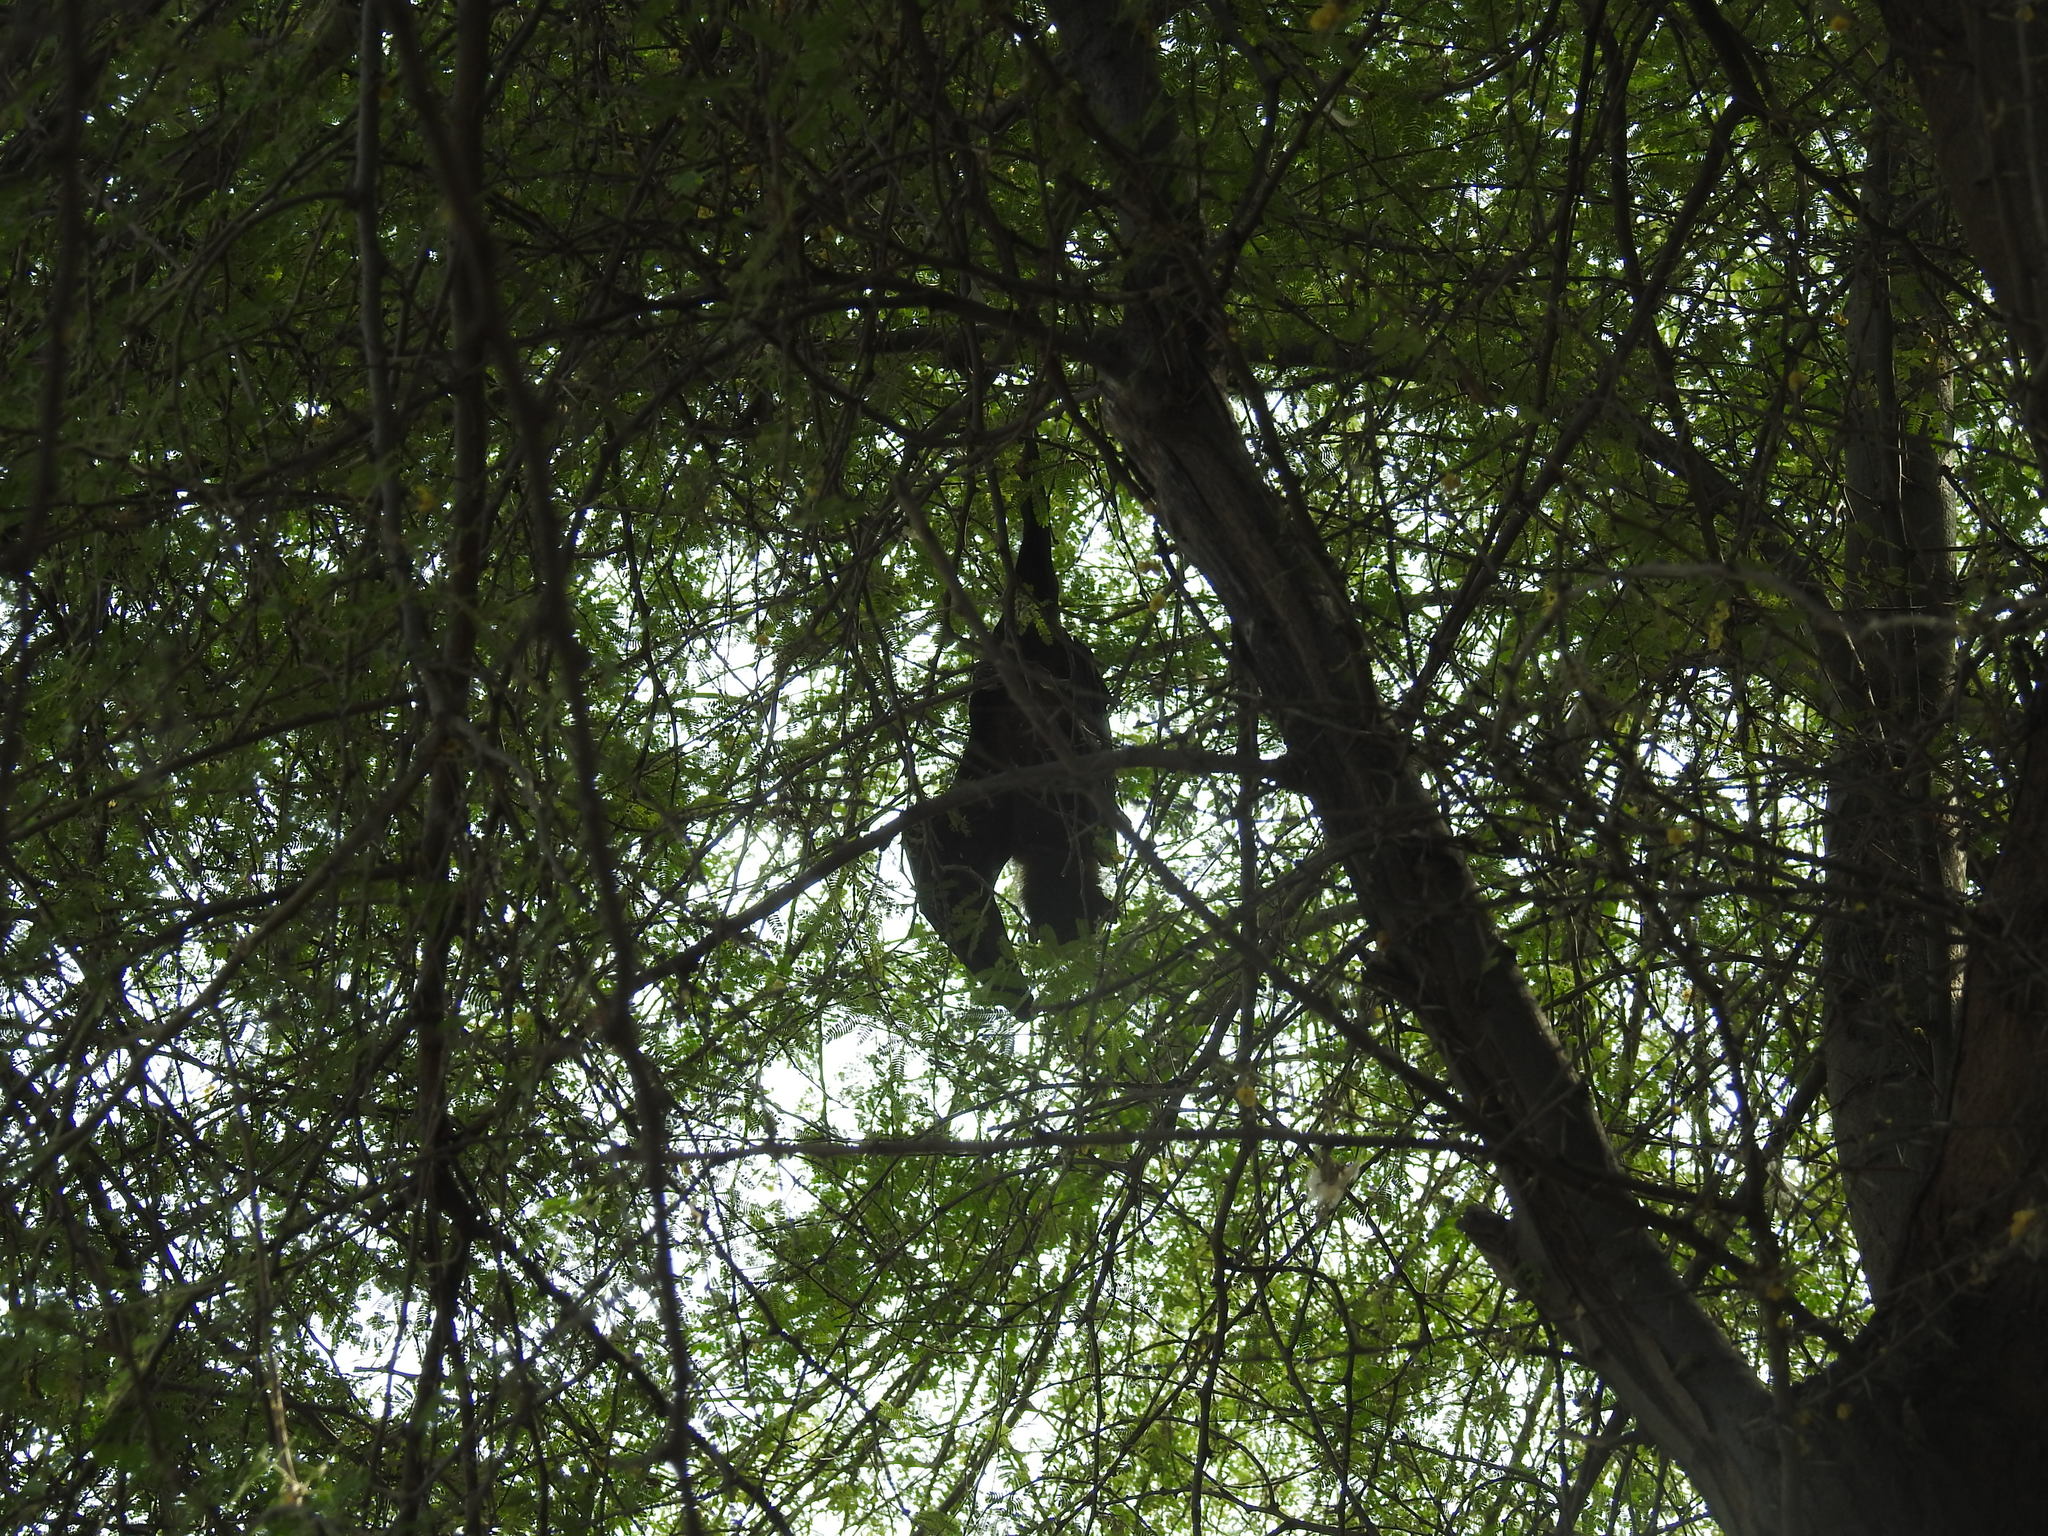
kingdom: Animalia
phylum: Chordata
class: Mammalia
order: Chiroptera
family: Pteropodidae
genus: Pteropus
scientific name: Pteropus vampyrus
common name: Large flying fox
